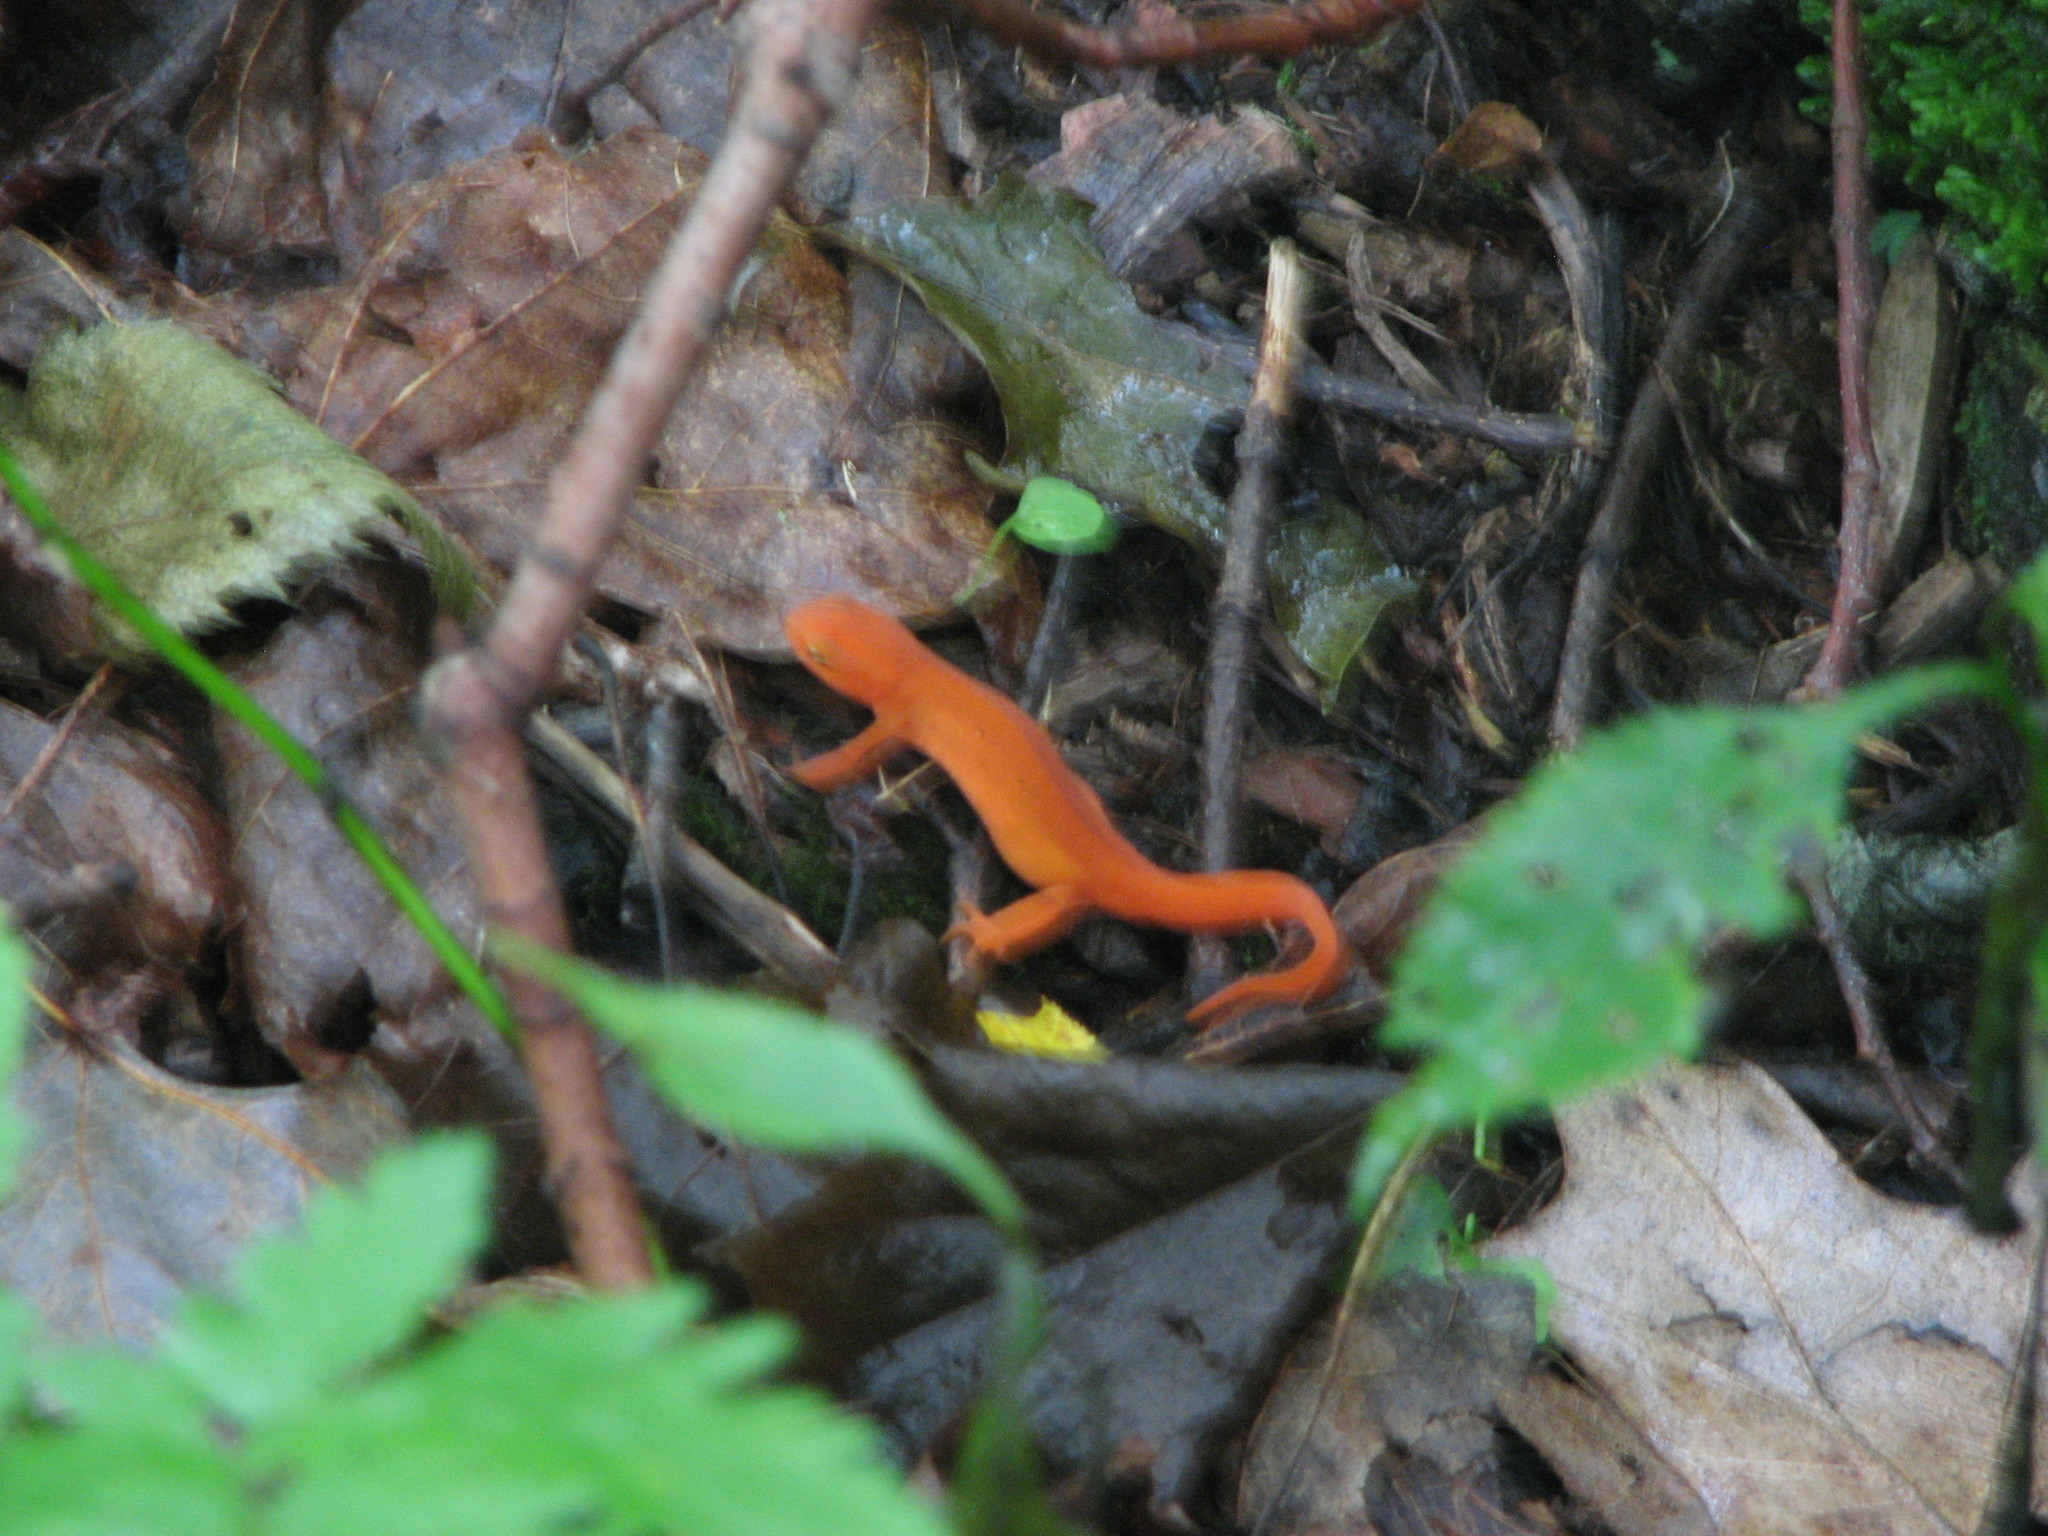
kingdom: Animalia
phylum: Chordata
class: Amphibia
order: Caudata
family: Salamandridae
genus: Notophthalmus
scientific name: Notophthalmus viridescens
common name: Eastern newt
